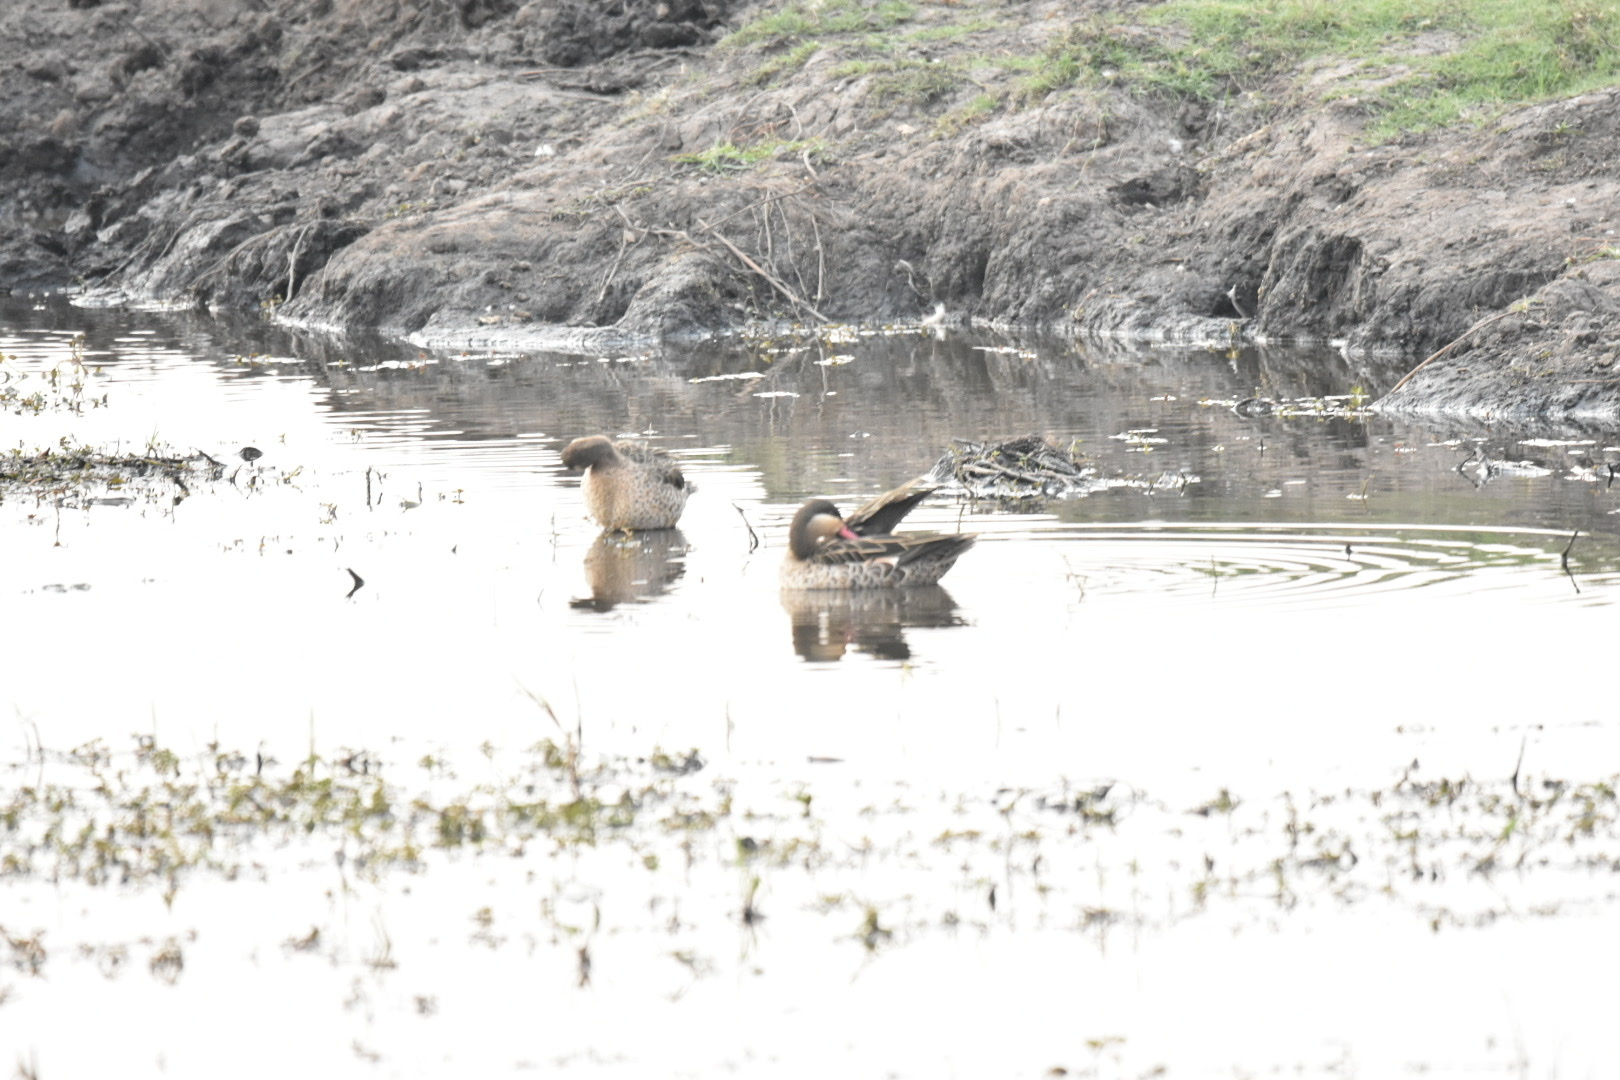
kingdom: Animalia
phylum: Chordata
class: Aves
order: Anseriformes
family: Anatidae
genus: Anas
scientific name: Anas erythrorhyncha
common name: Red-billed teal
